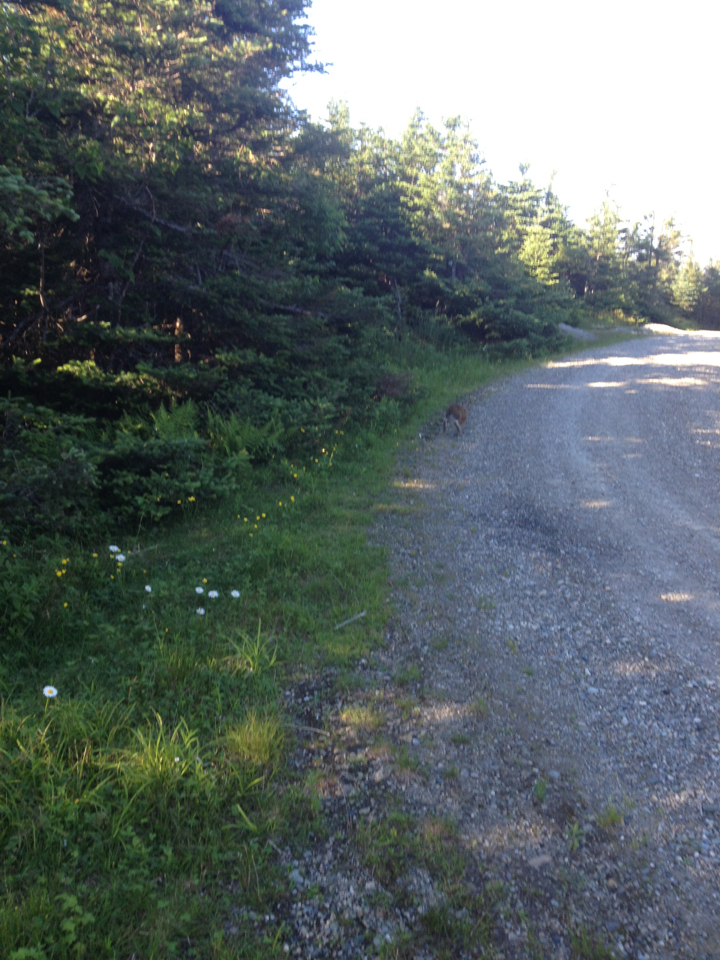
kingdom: Animalia
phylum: Chordata
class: Mammalia
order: Lagomorpha
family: Leporidae
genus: Lepus
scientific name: Lepus americanus
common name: Snowshoe hare
